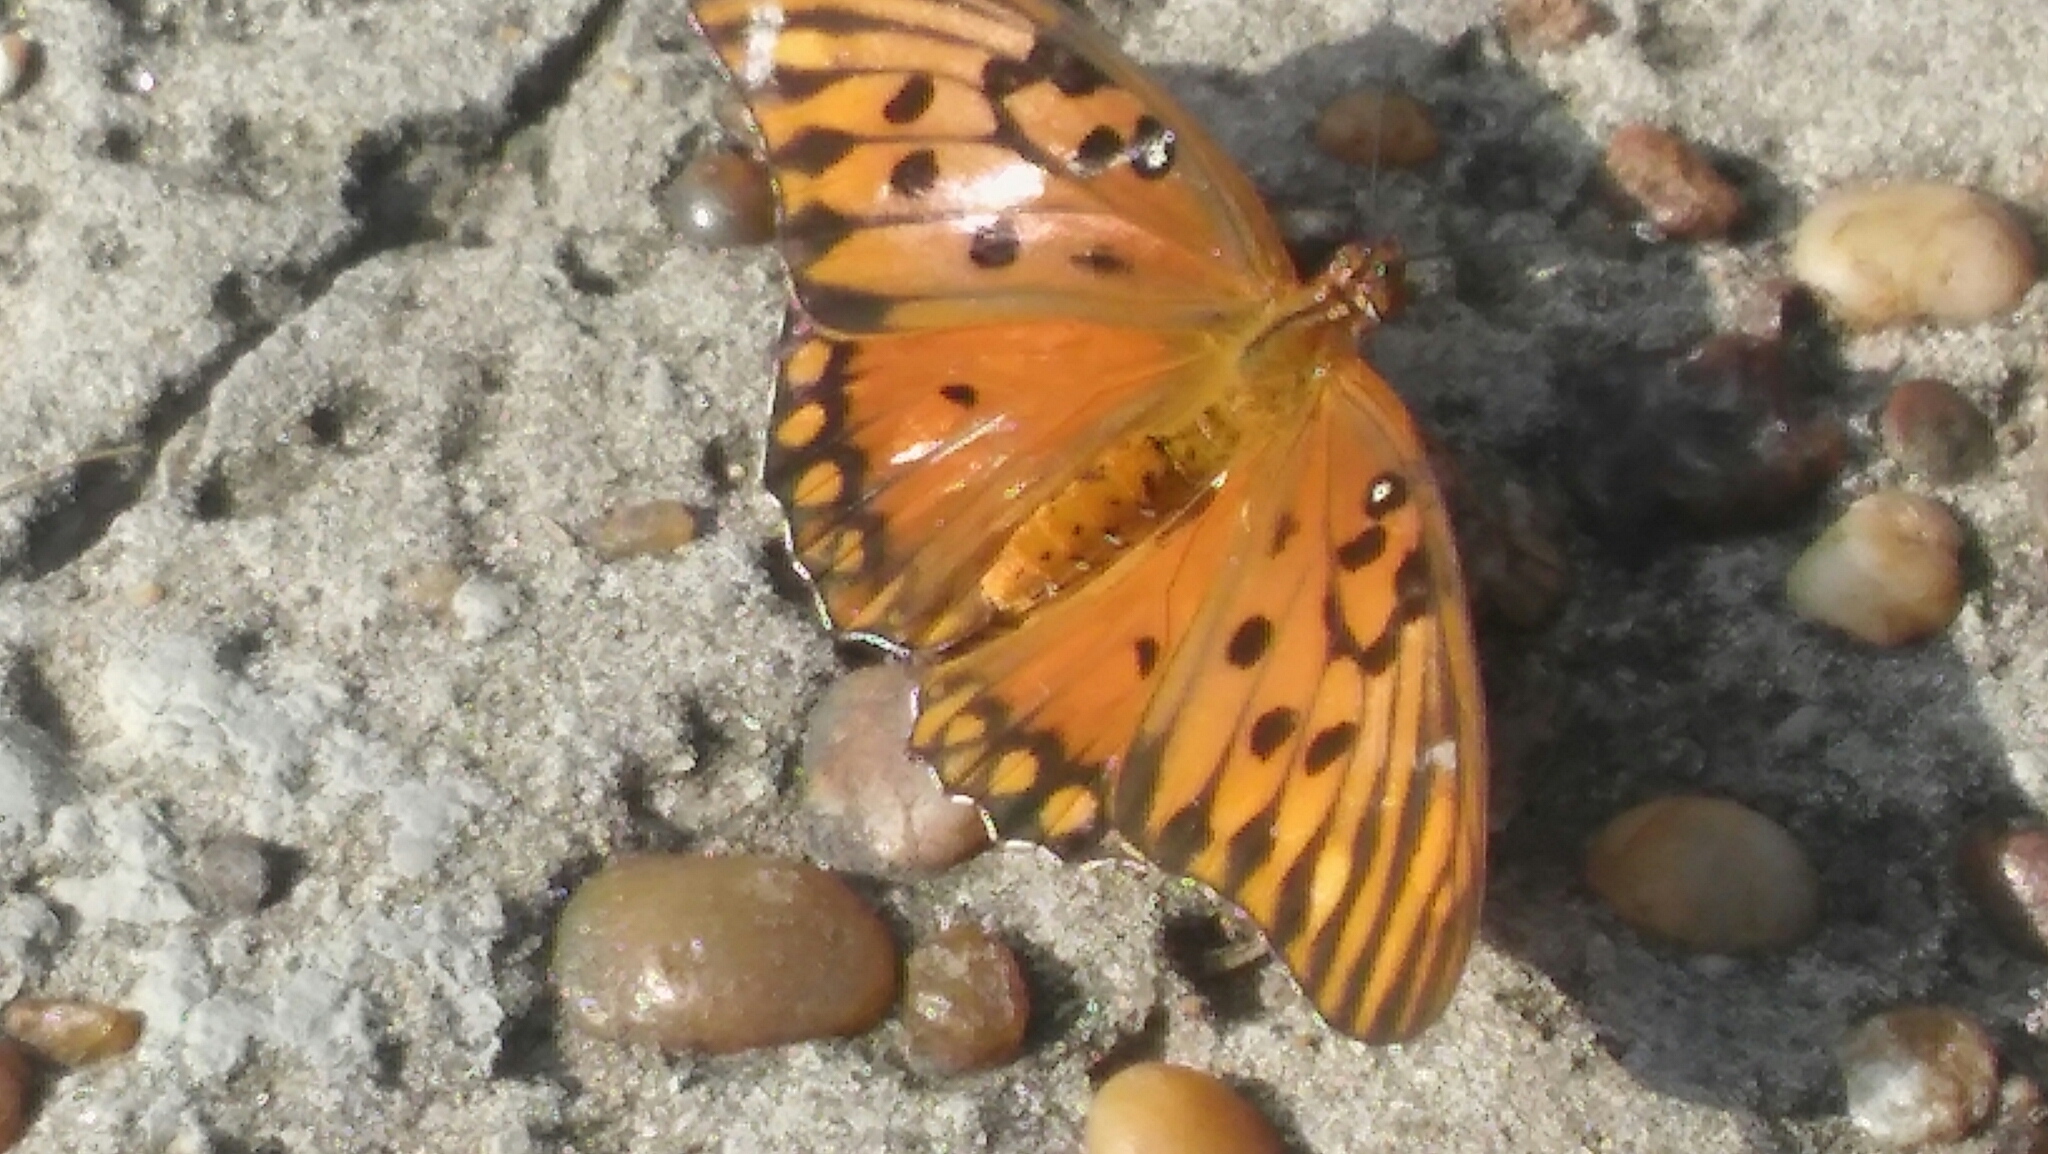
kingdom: Animalia
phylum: Arthropoda
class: Insecta
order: Lepidoptera
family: Nymphalidae
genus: Dione
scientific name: Dione vanillae
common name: Gulf fritillary
